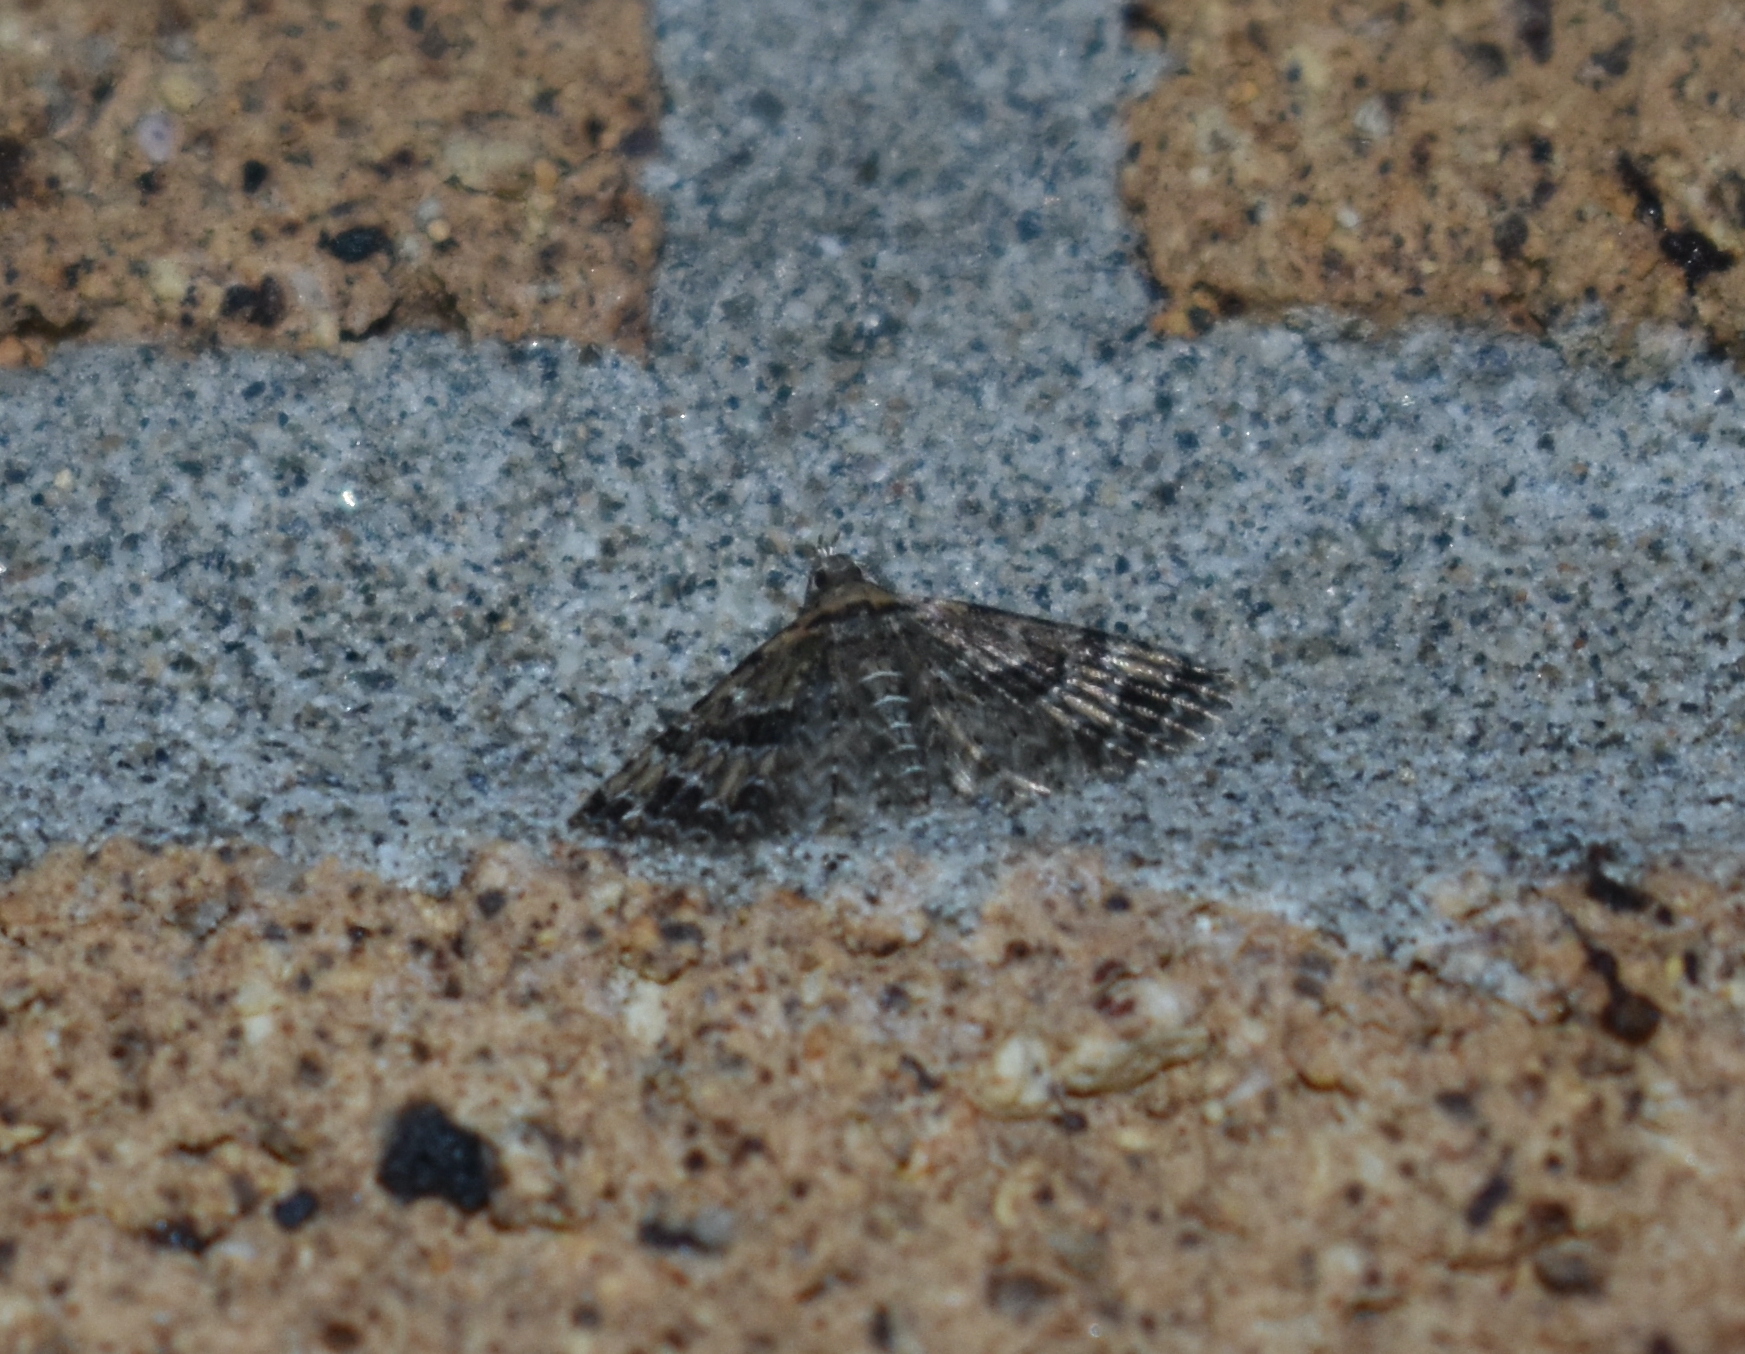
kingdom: Animalia
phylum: Arthropoda
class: Insecta
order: Lepidoptera
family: Alucitidae
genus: Alucita
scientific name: Alucita montana
